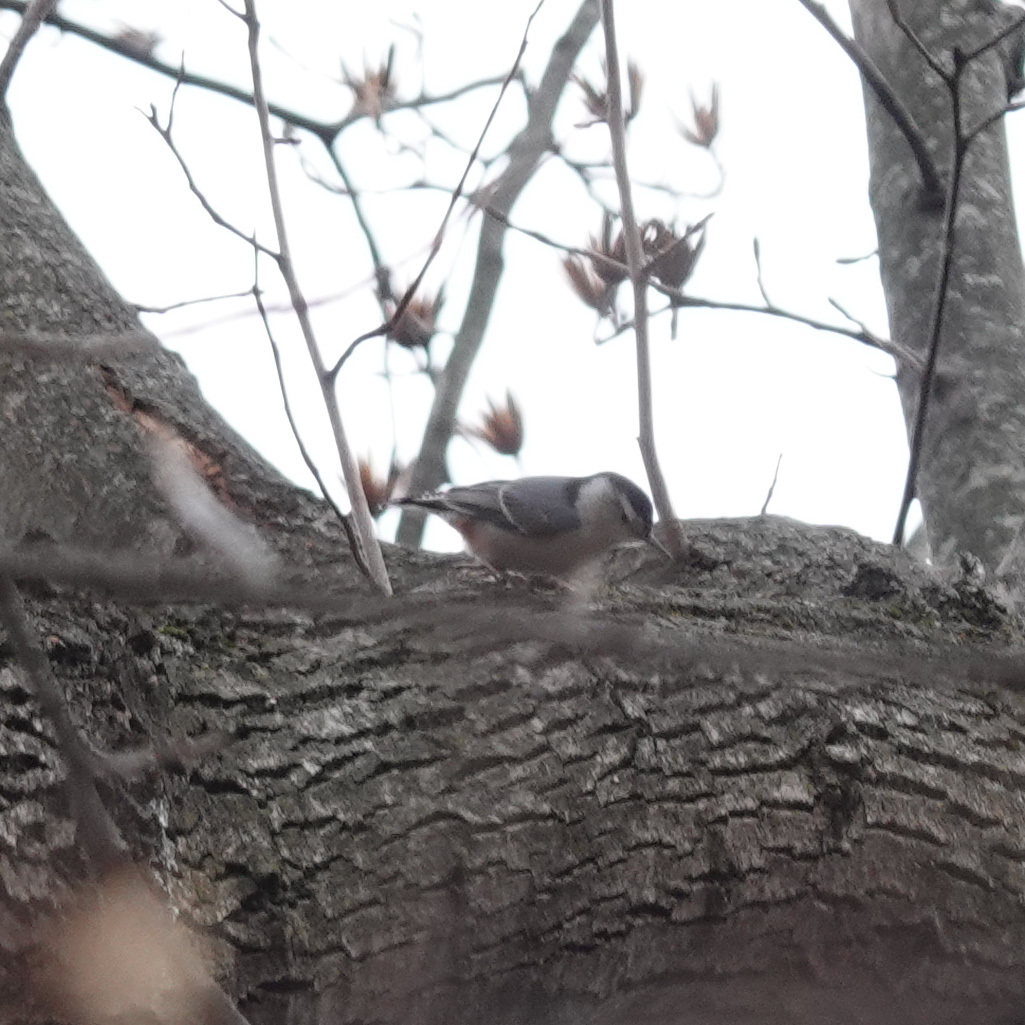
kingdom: Animalia
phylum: Chordata
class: Aves
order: Passeriformes
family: Sittidae
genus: Sitta
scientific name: Sitta carolinensis
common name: White-breasted nuthatch
